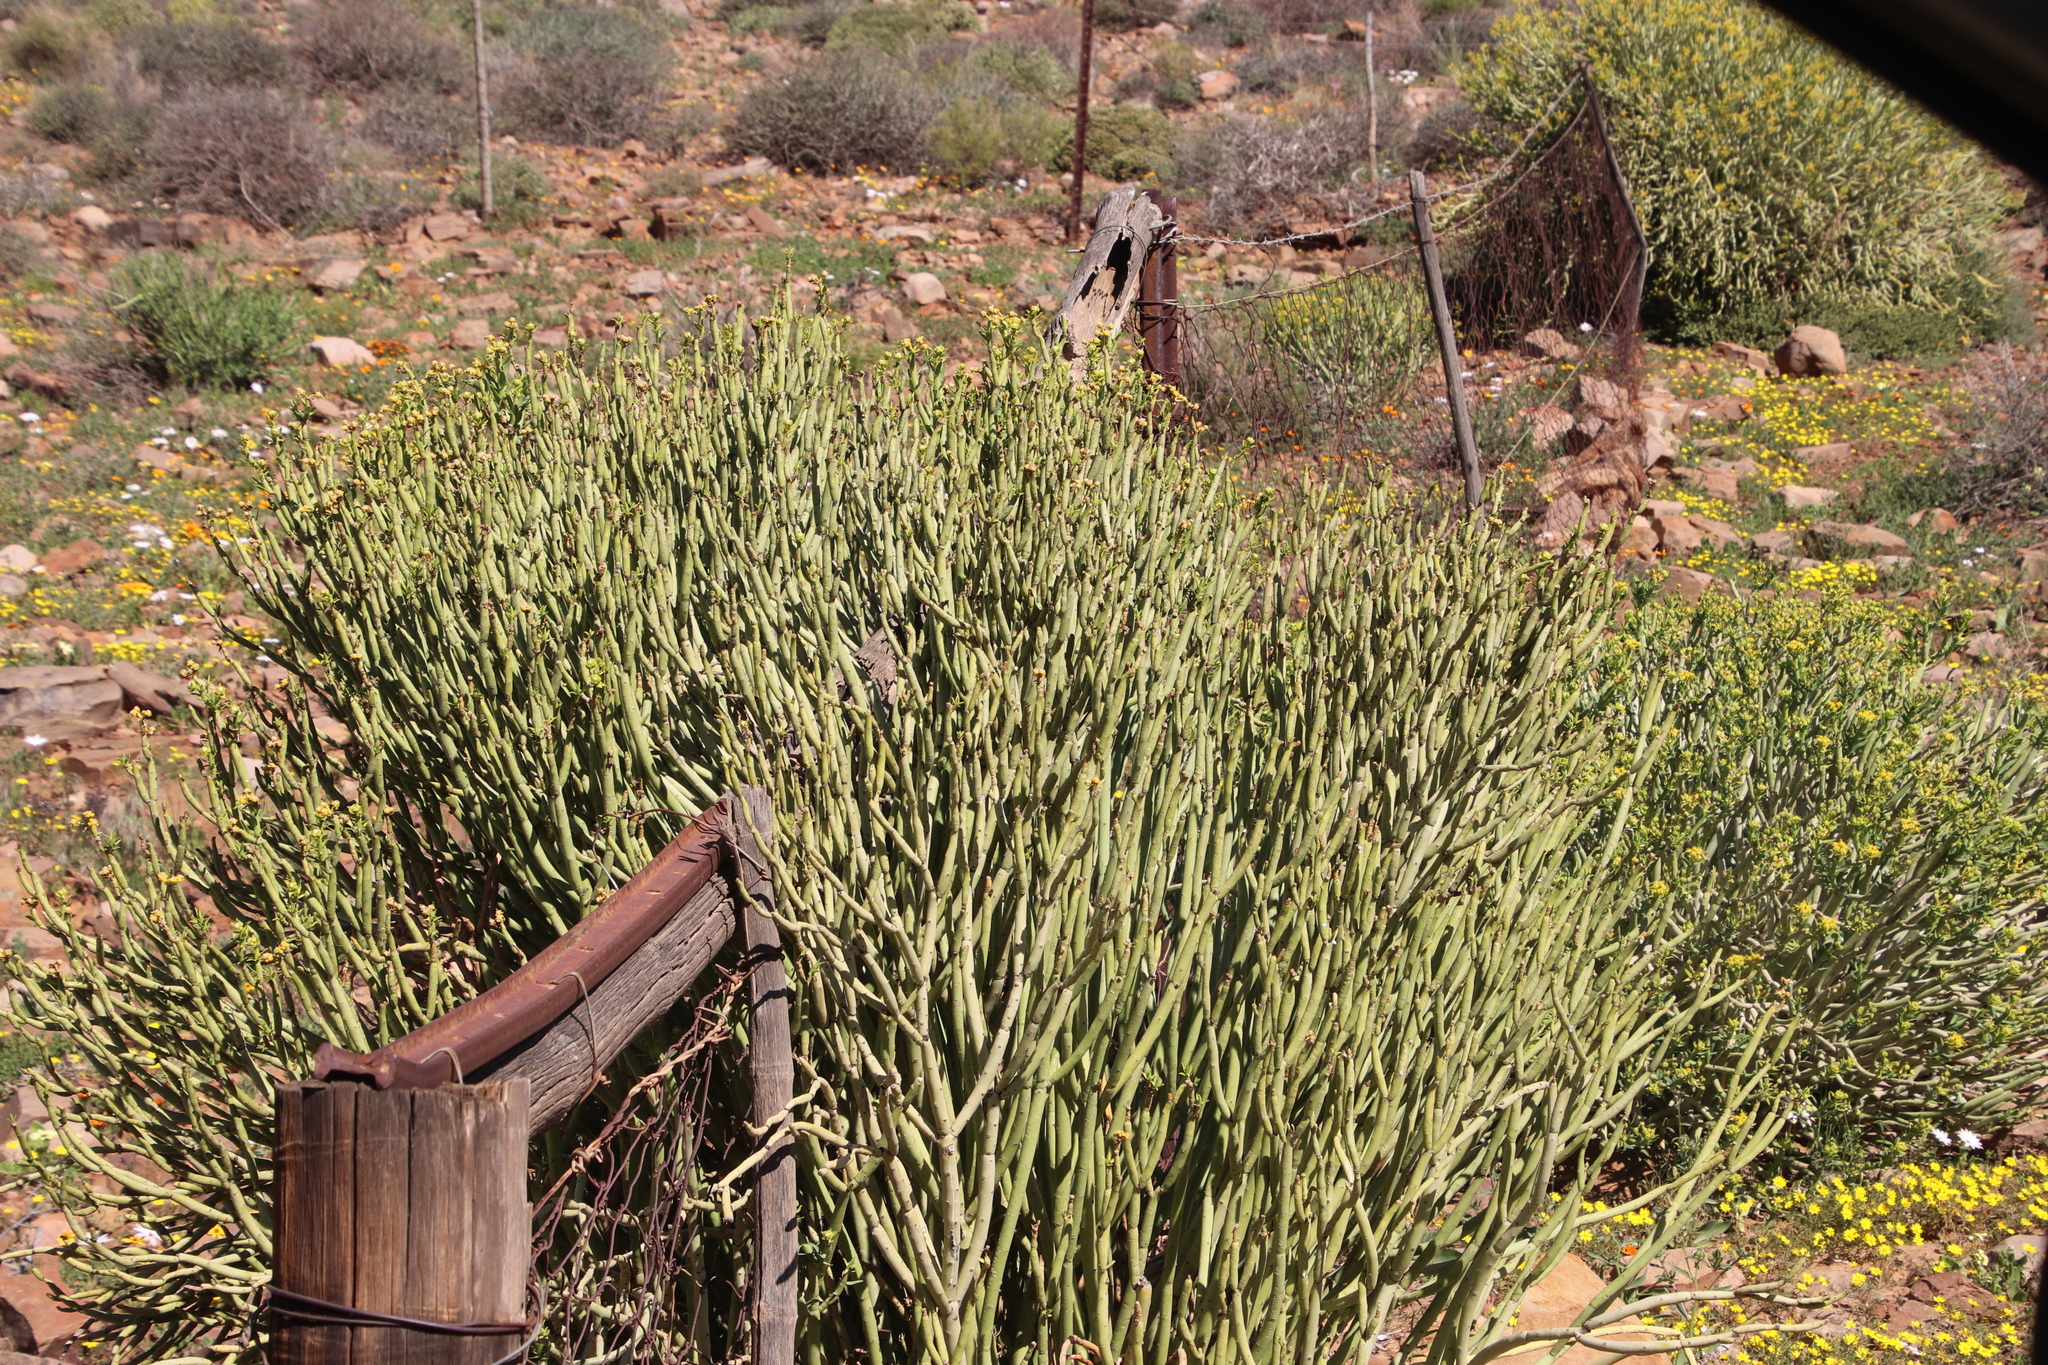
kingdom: Plantae
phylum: Tracheophyta
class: Magnoliopsida
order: Malpighiales
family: Euphorbiaceae
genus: Euphorbia
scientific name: Euphorbia mauritanica
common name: Jackal's-food
